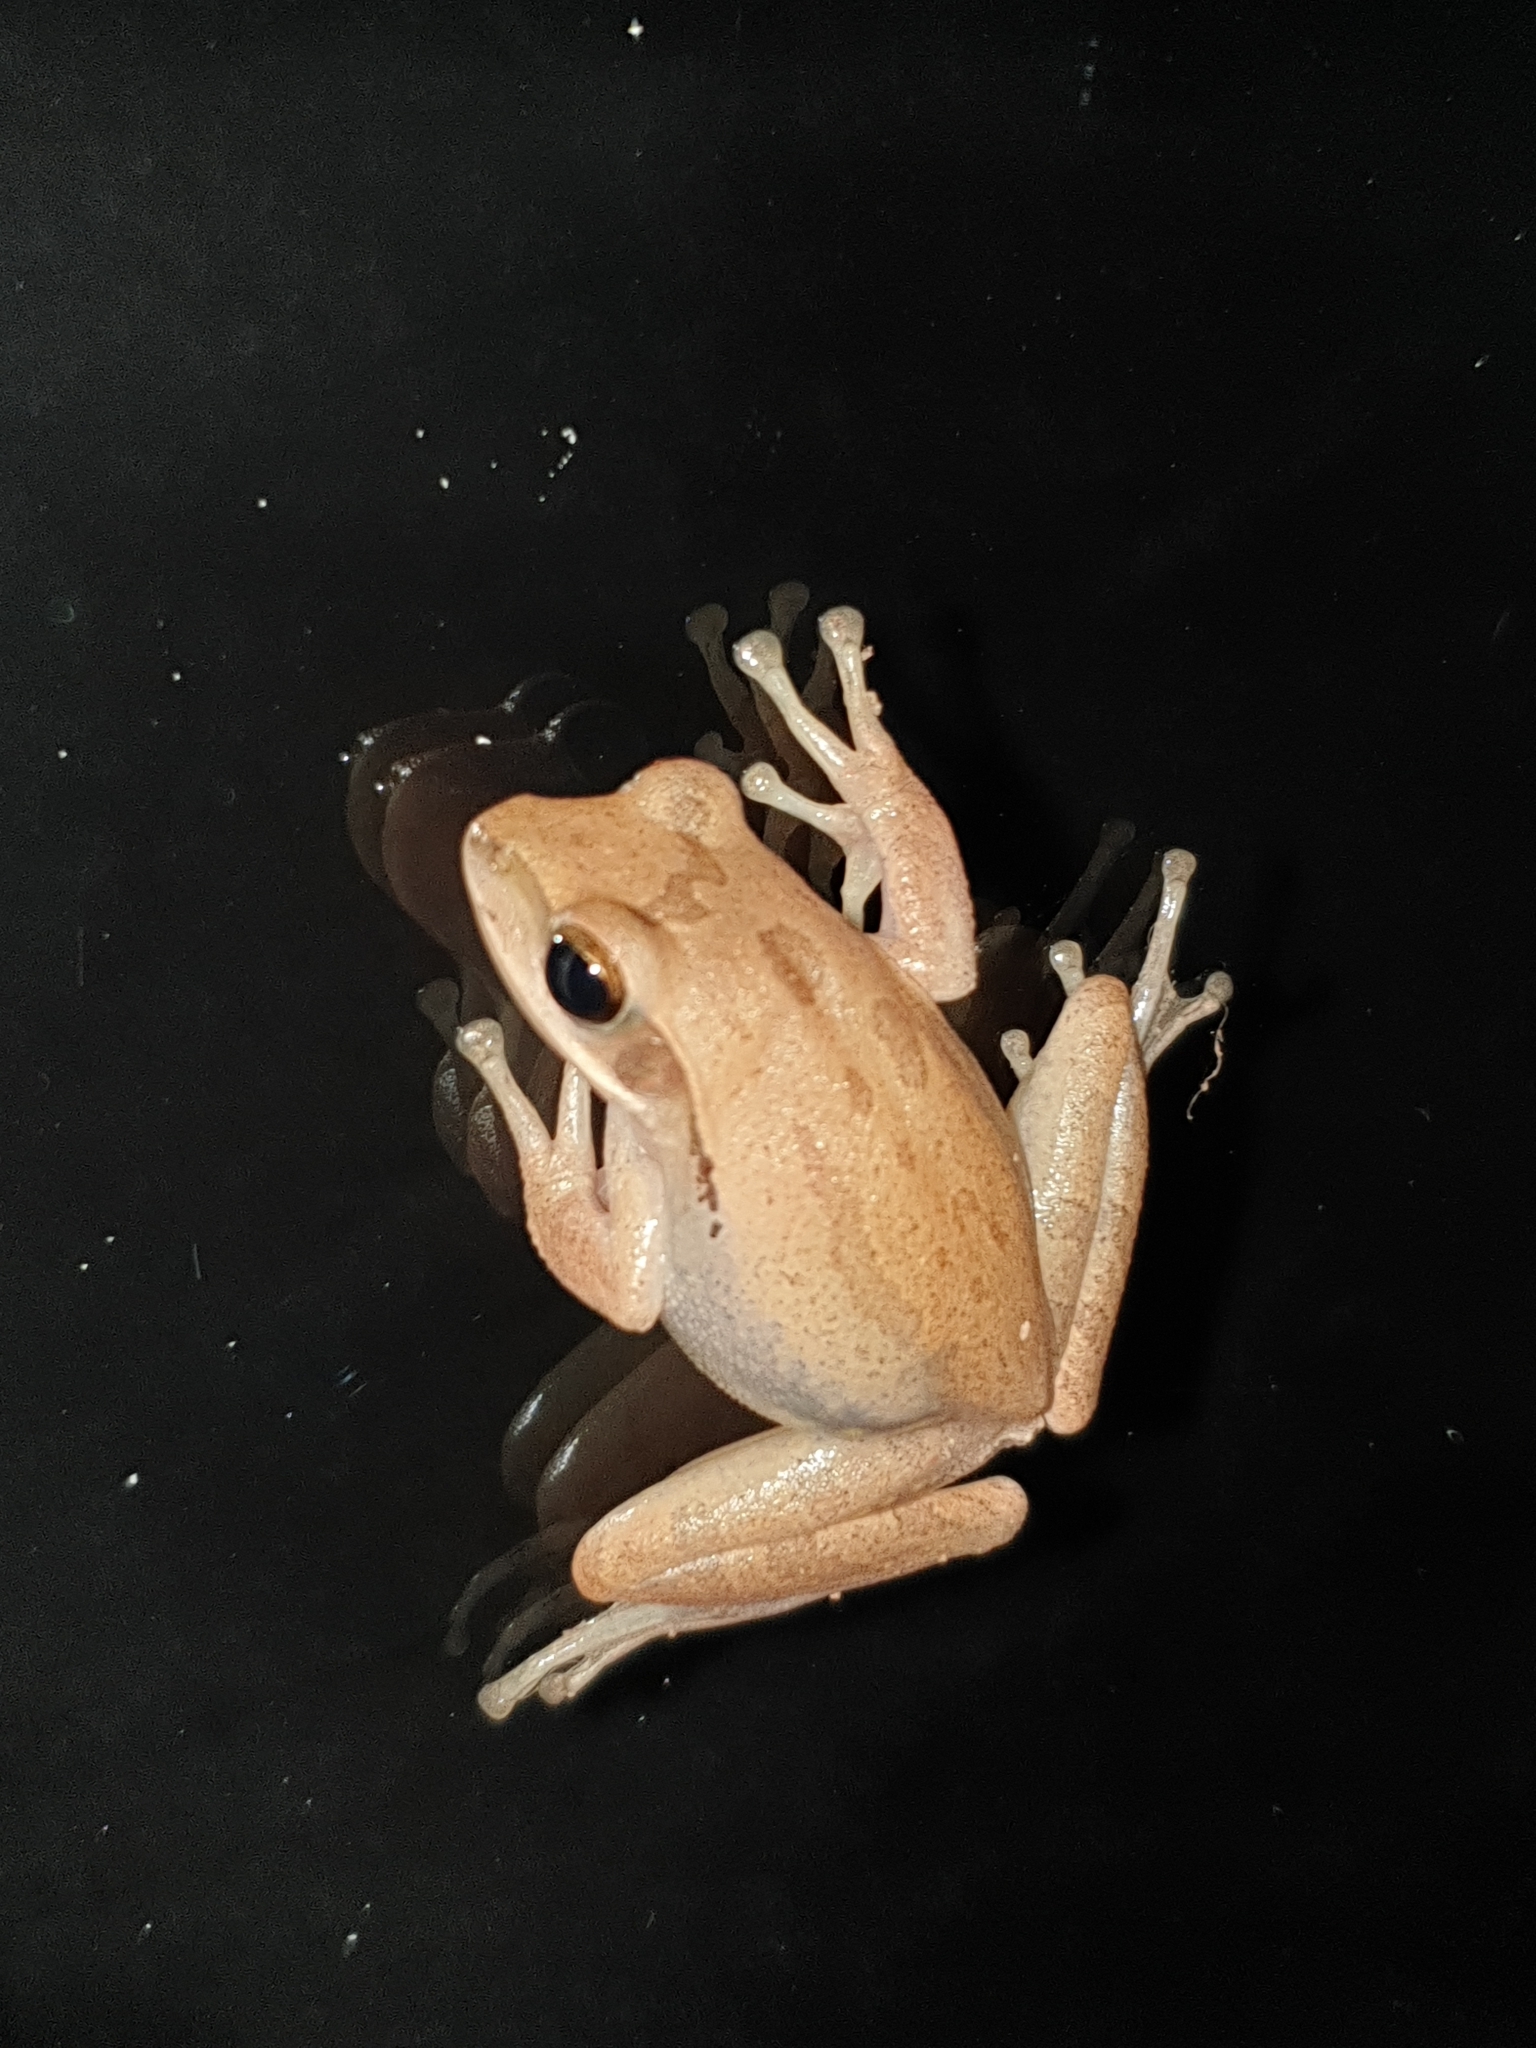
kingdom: Animalia
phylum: Chordata
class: Amphibia
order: Anura
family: Rhacophoridae
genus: Polypedates
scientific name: Polypedates maculatus
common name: Himalayan tree frog
